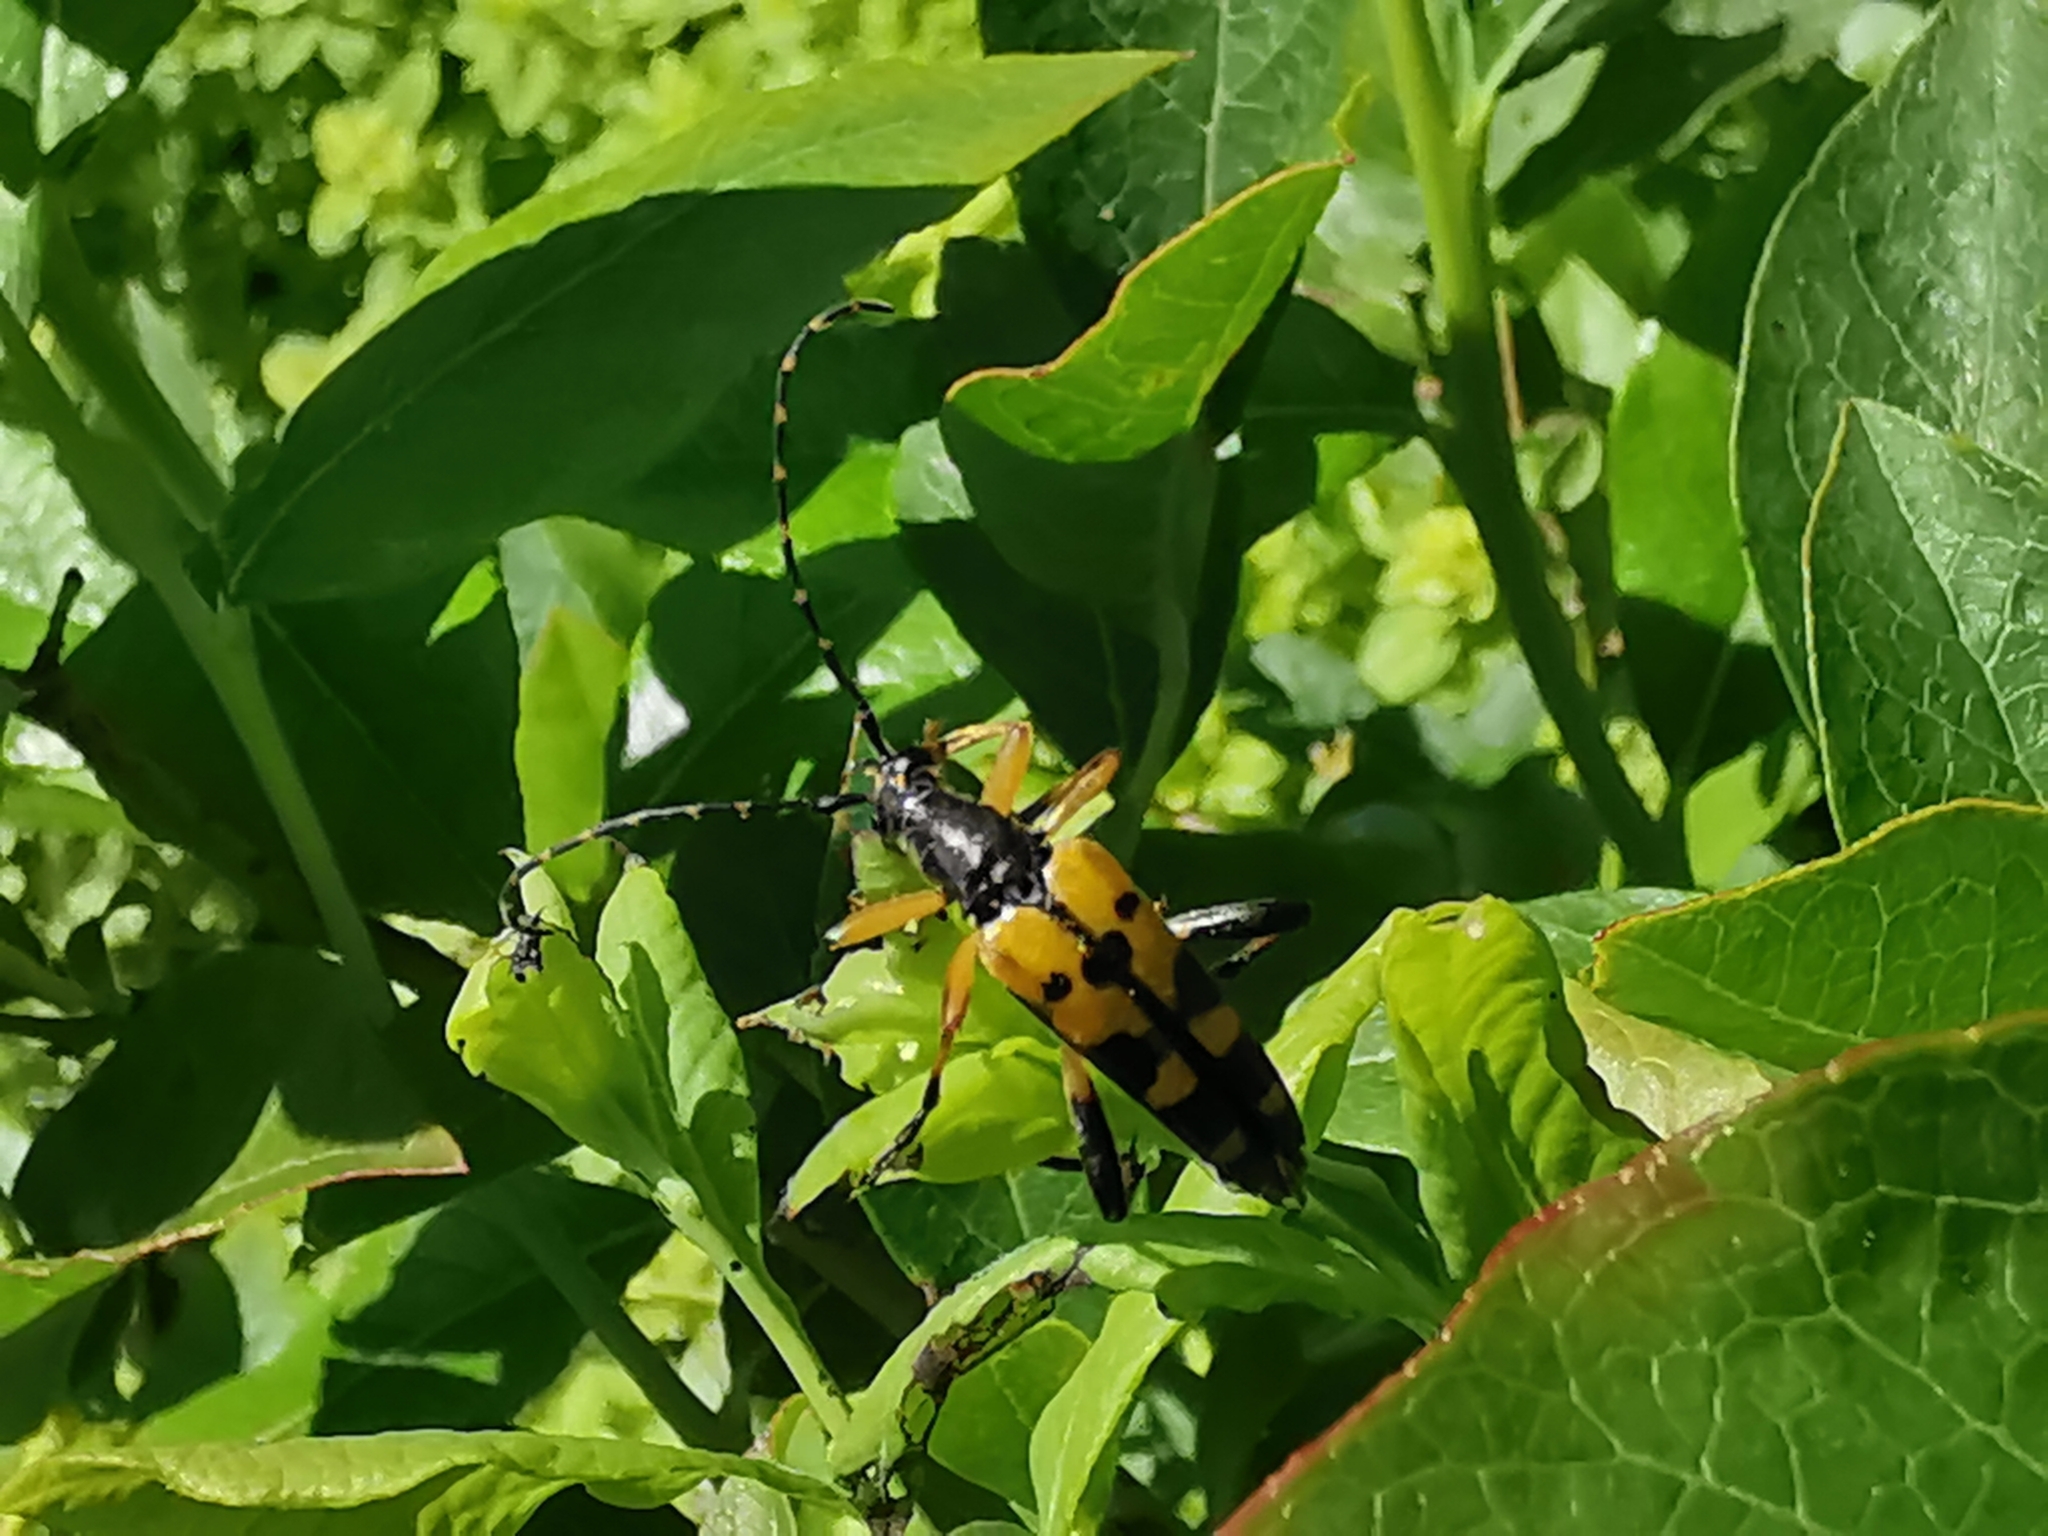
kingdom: Animalia
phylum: Arthropoda
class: Insecta
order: Coleoptera
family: Cerambycidae
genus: Rutpela
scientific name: Rutpela maculata
